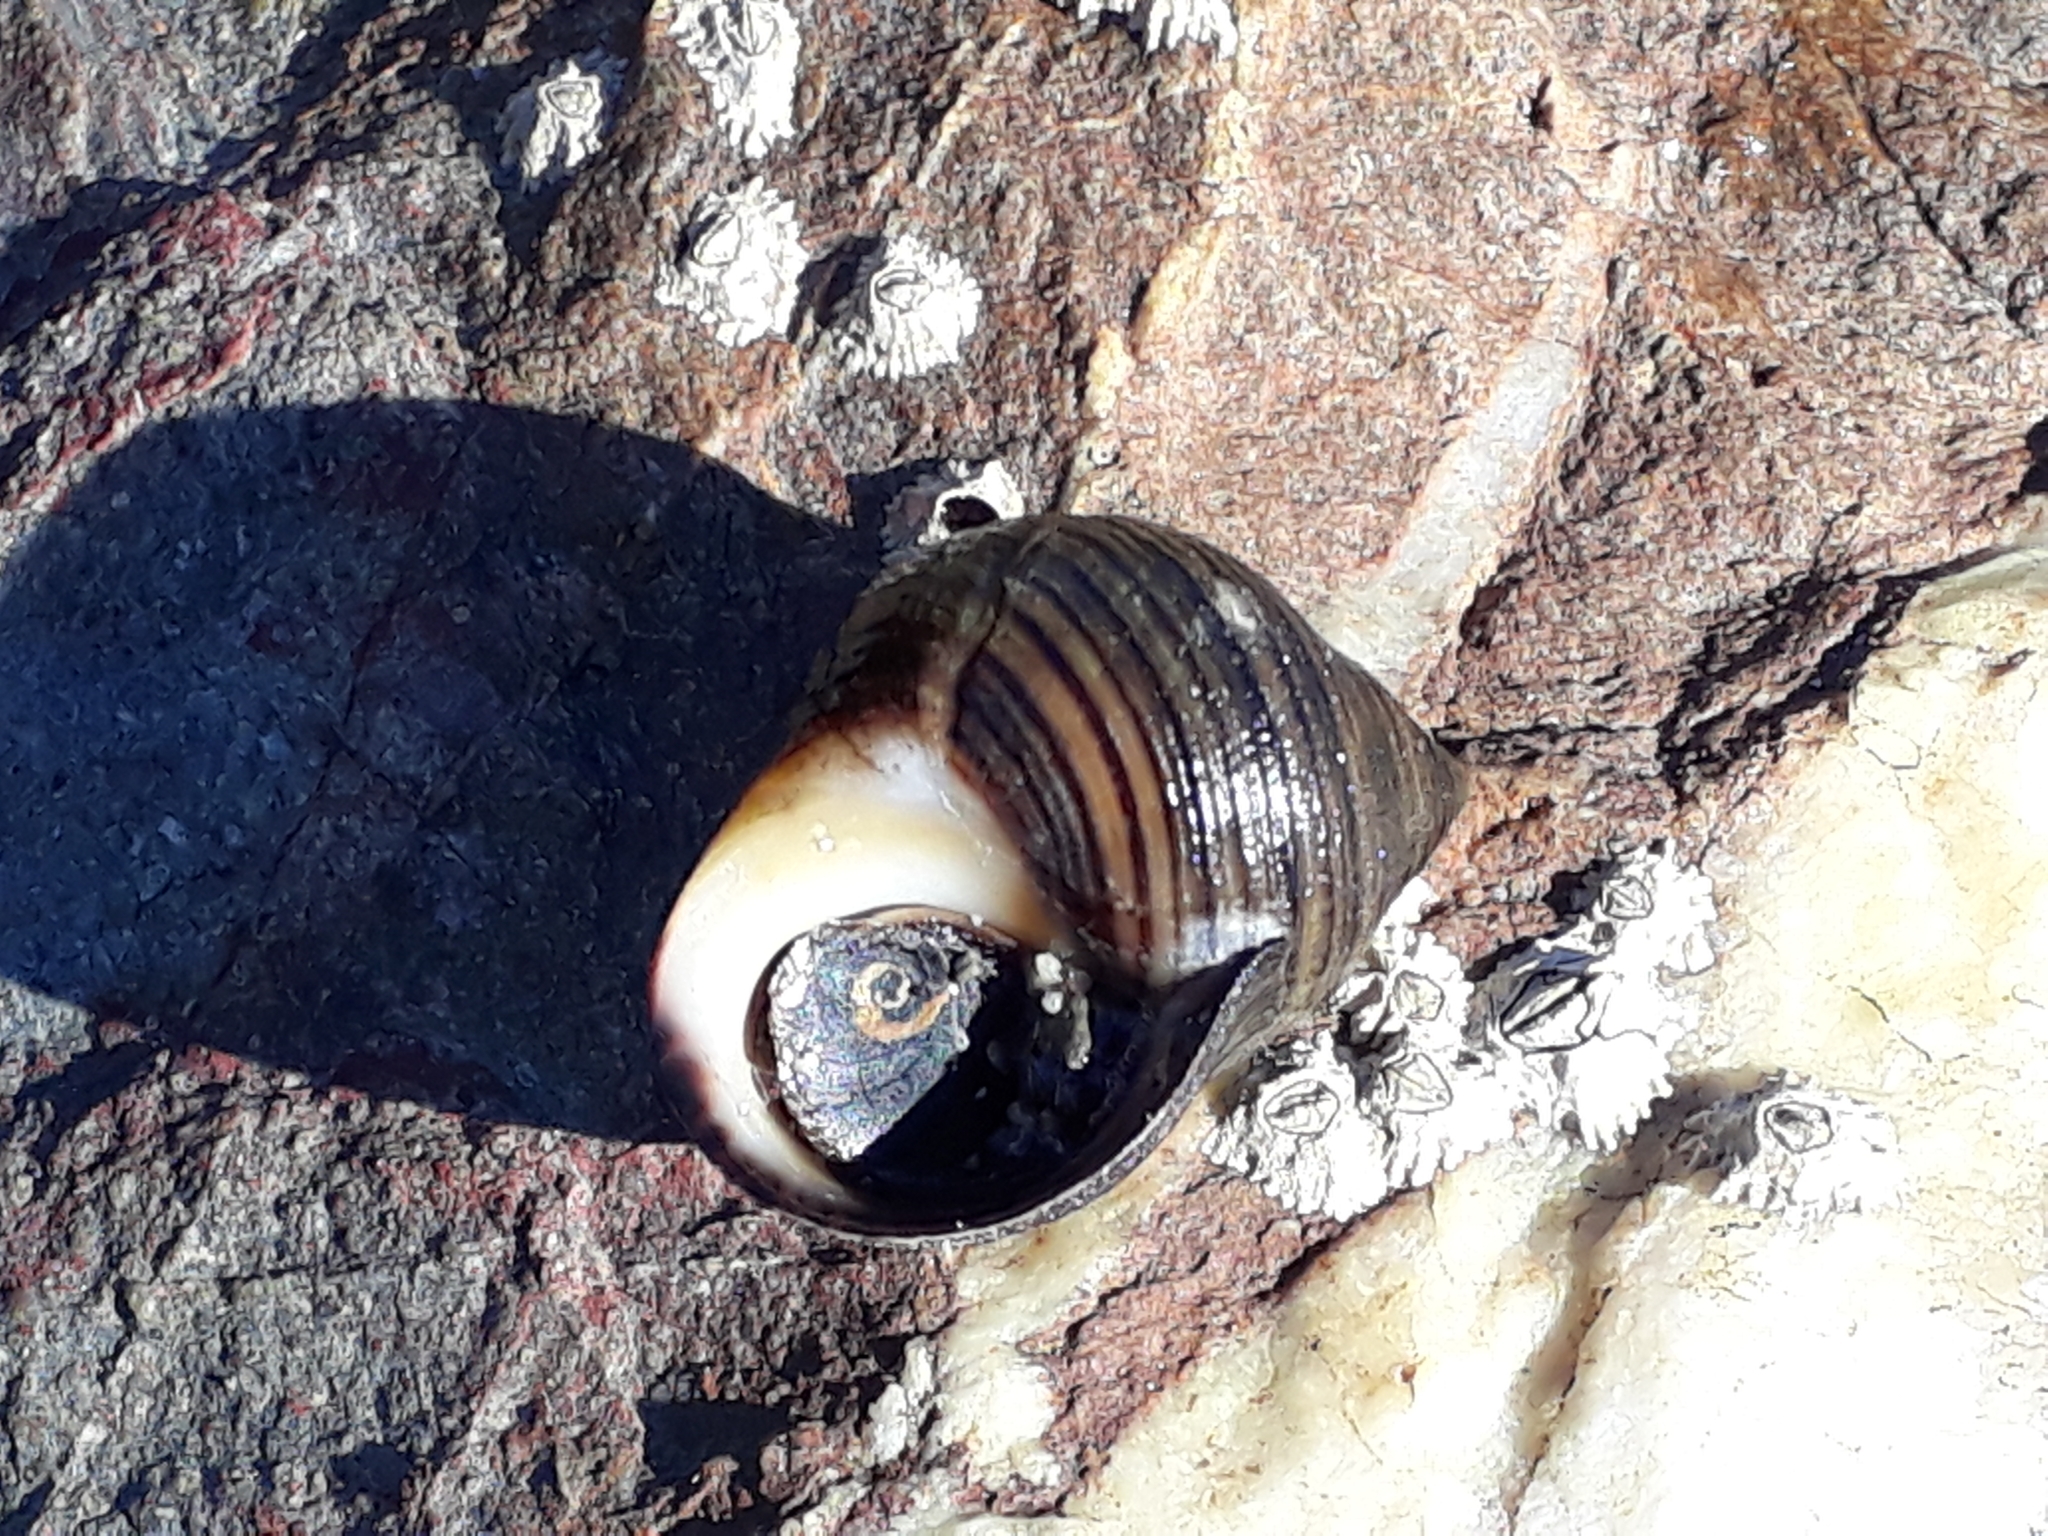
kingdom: Animalia
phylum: Mollusca
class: Gastropoda
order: Littorinimorpha
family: Littorinidae
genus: Littorina
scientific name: Littorina littorea
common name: Common periwinkle
